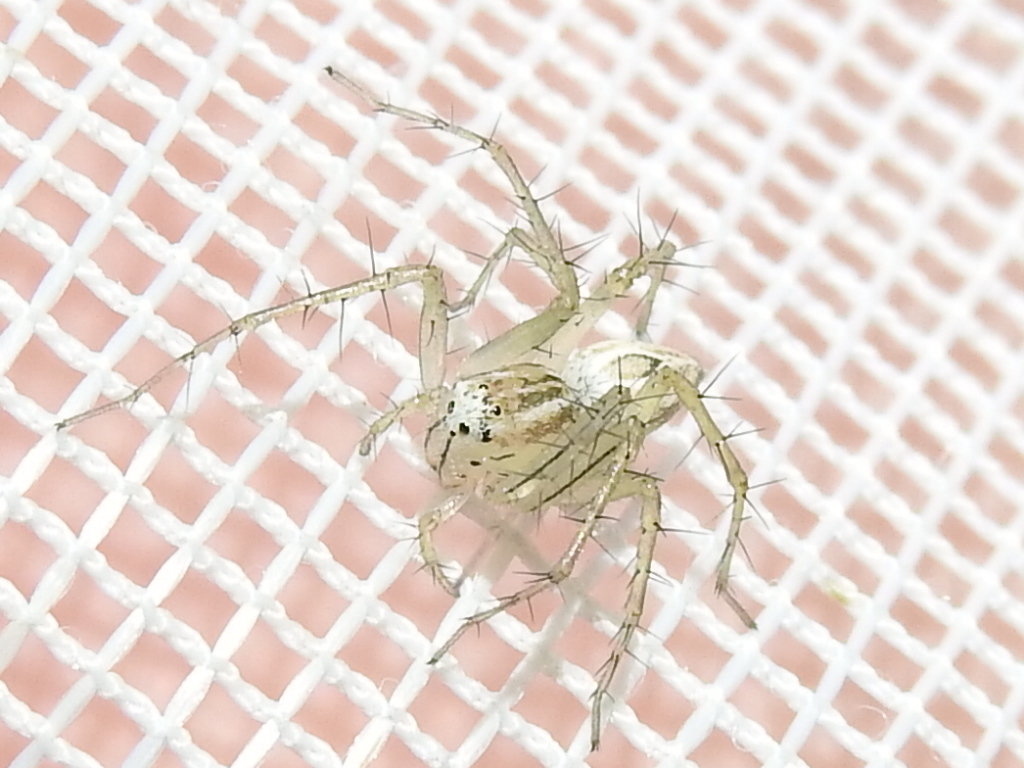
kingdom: Animalia
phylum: Arthropoda
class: Arachnida
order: Araneae
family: Oxyopidae
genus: Oxyopes
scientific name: Oxyopes salticus
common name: Lynx spiders
